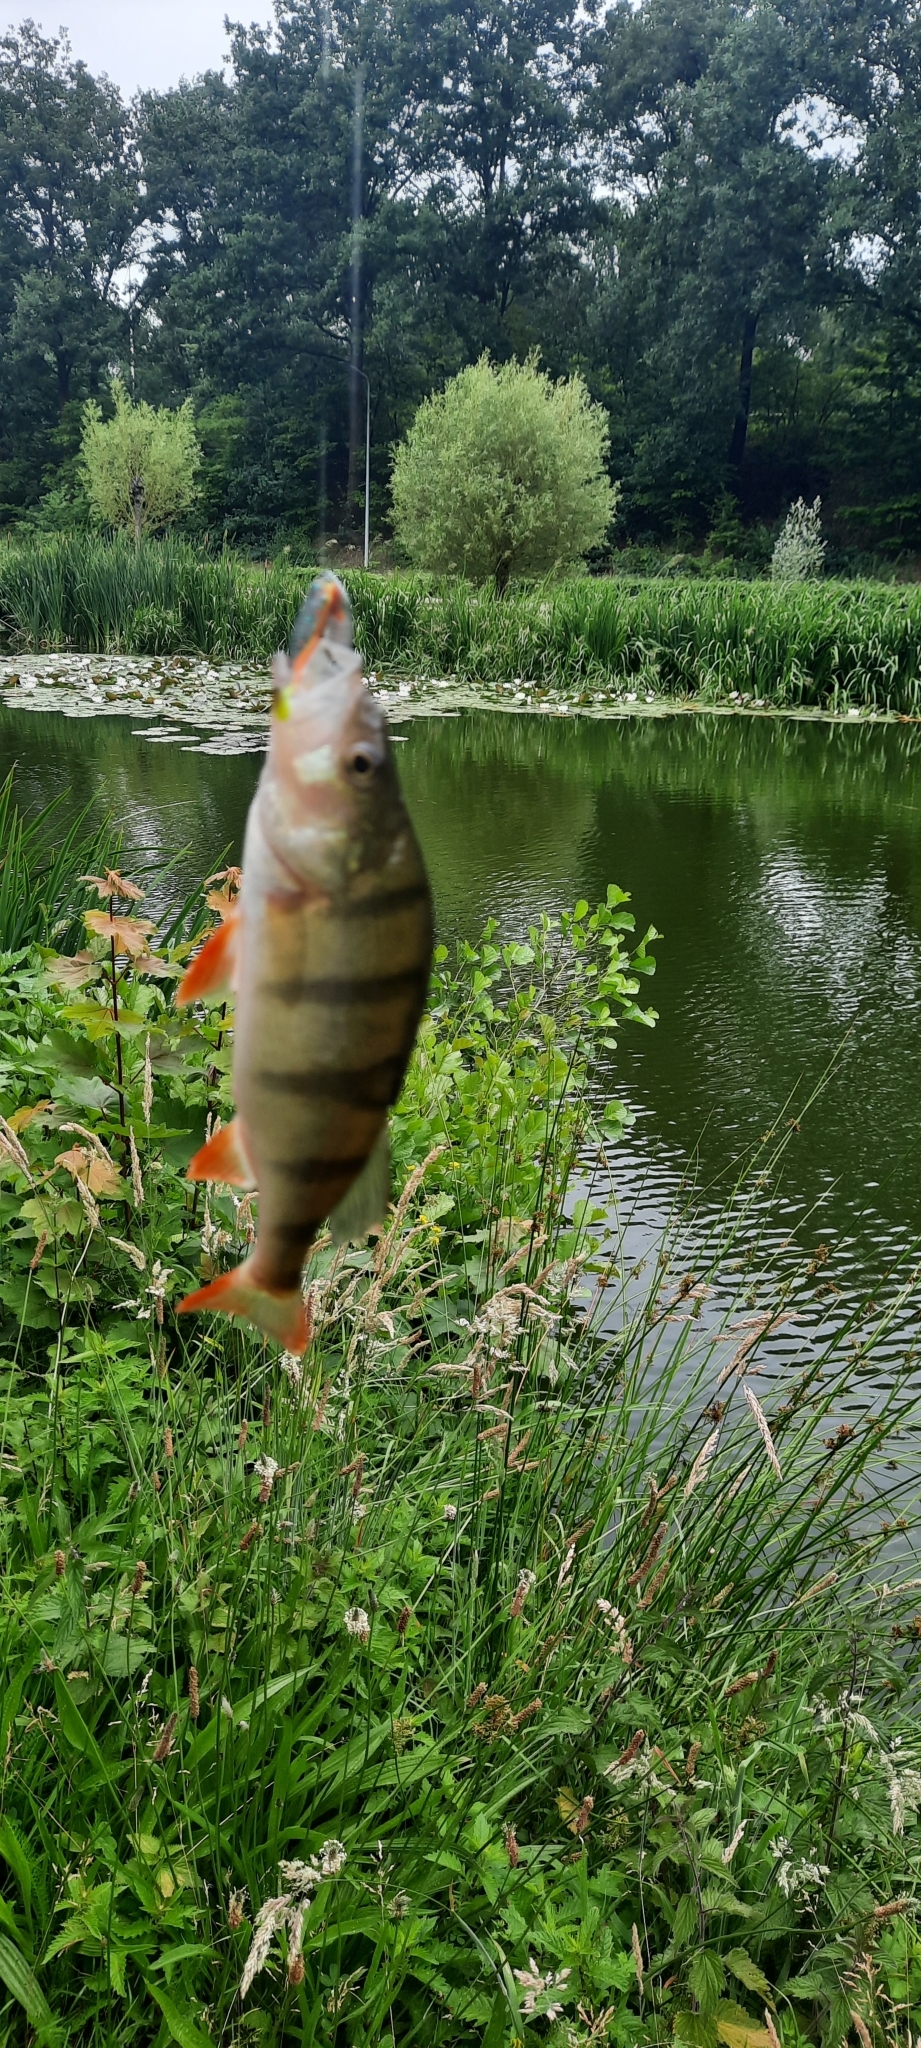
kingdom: Animalia
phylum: Chordata
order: Perciformes
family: Percidae
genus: Perca
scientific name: Perca fluviatilis
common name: Perch
